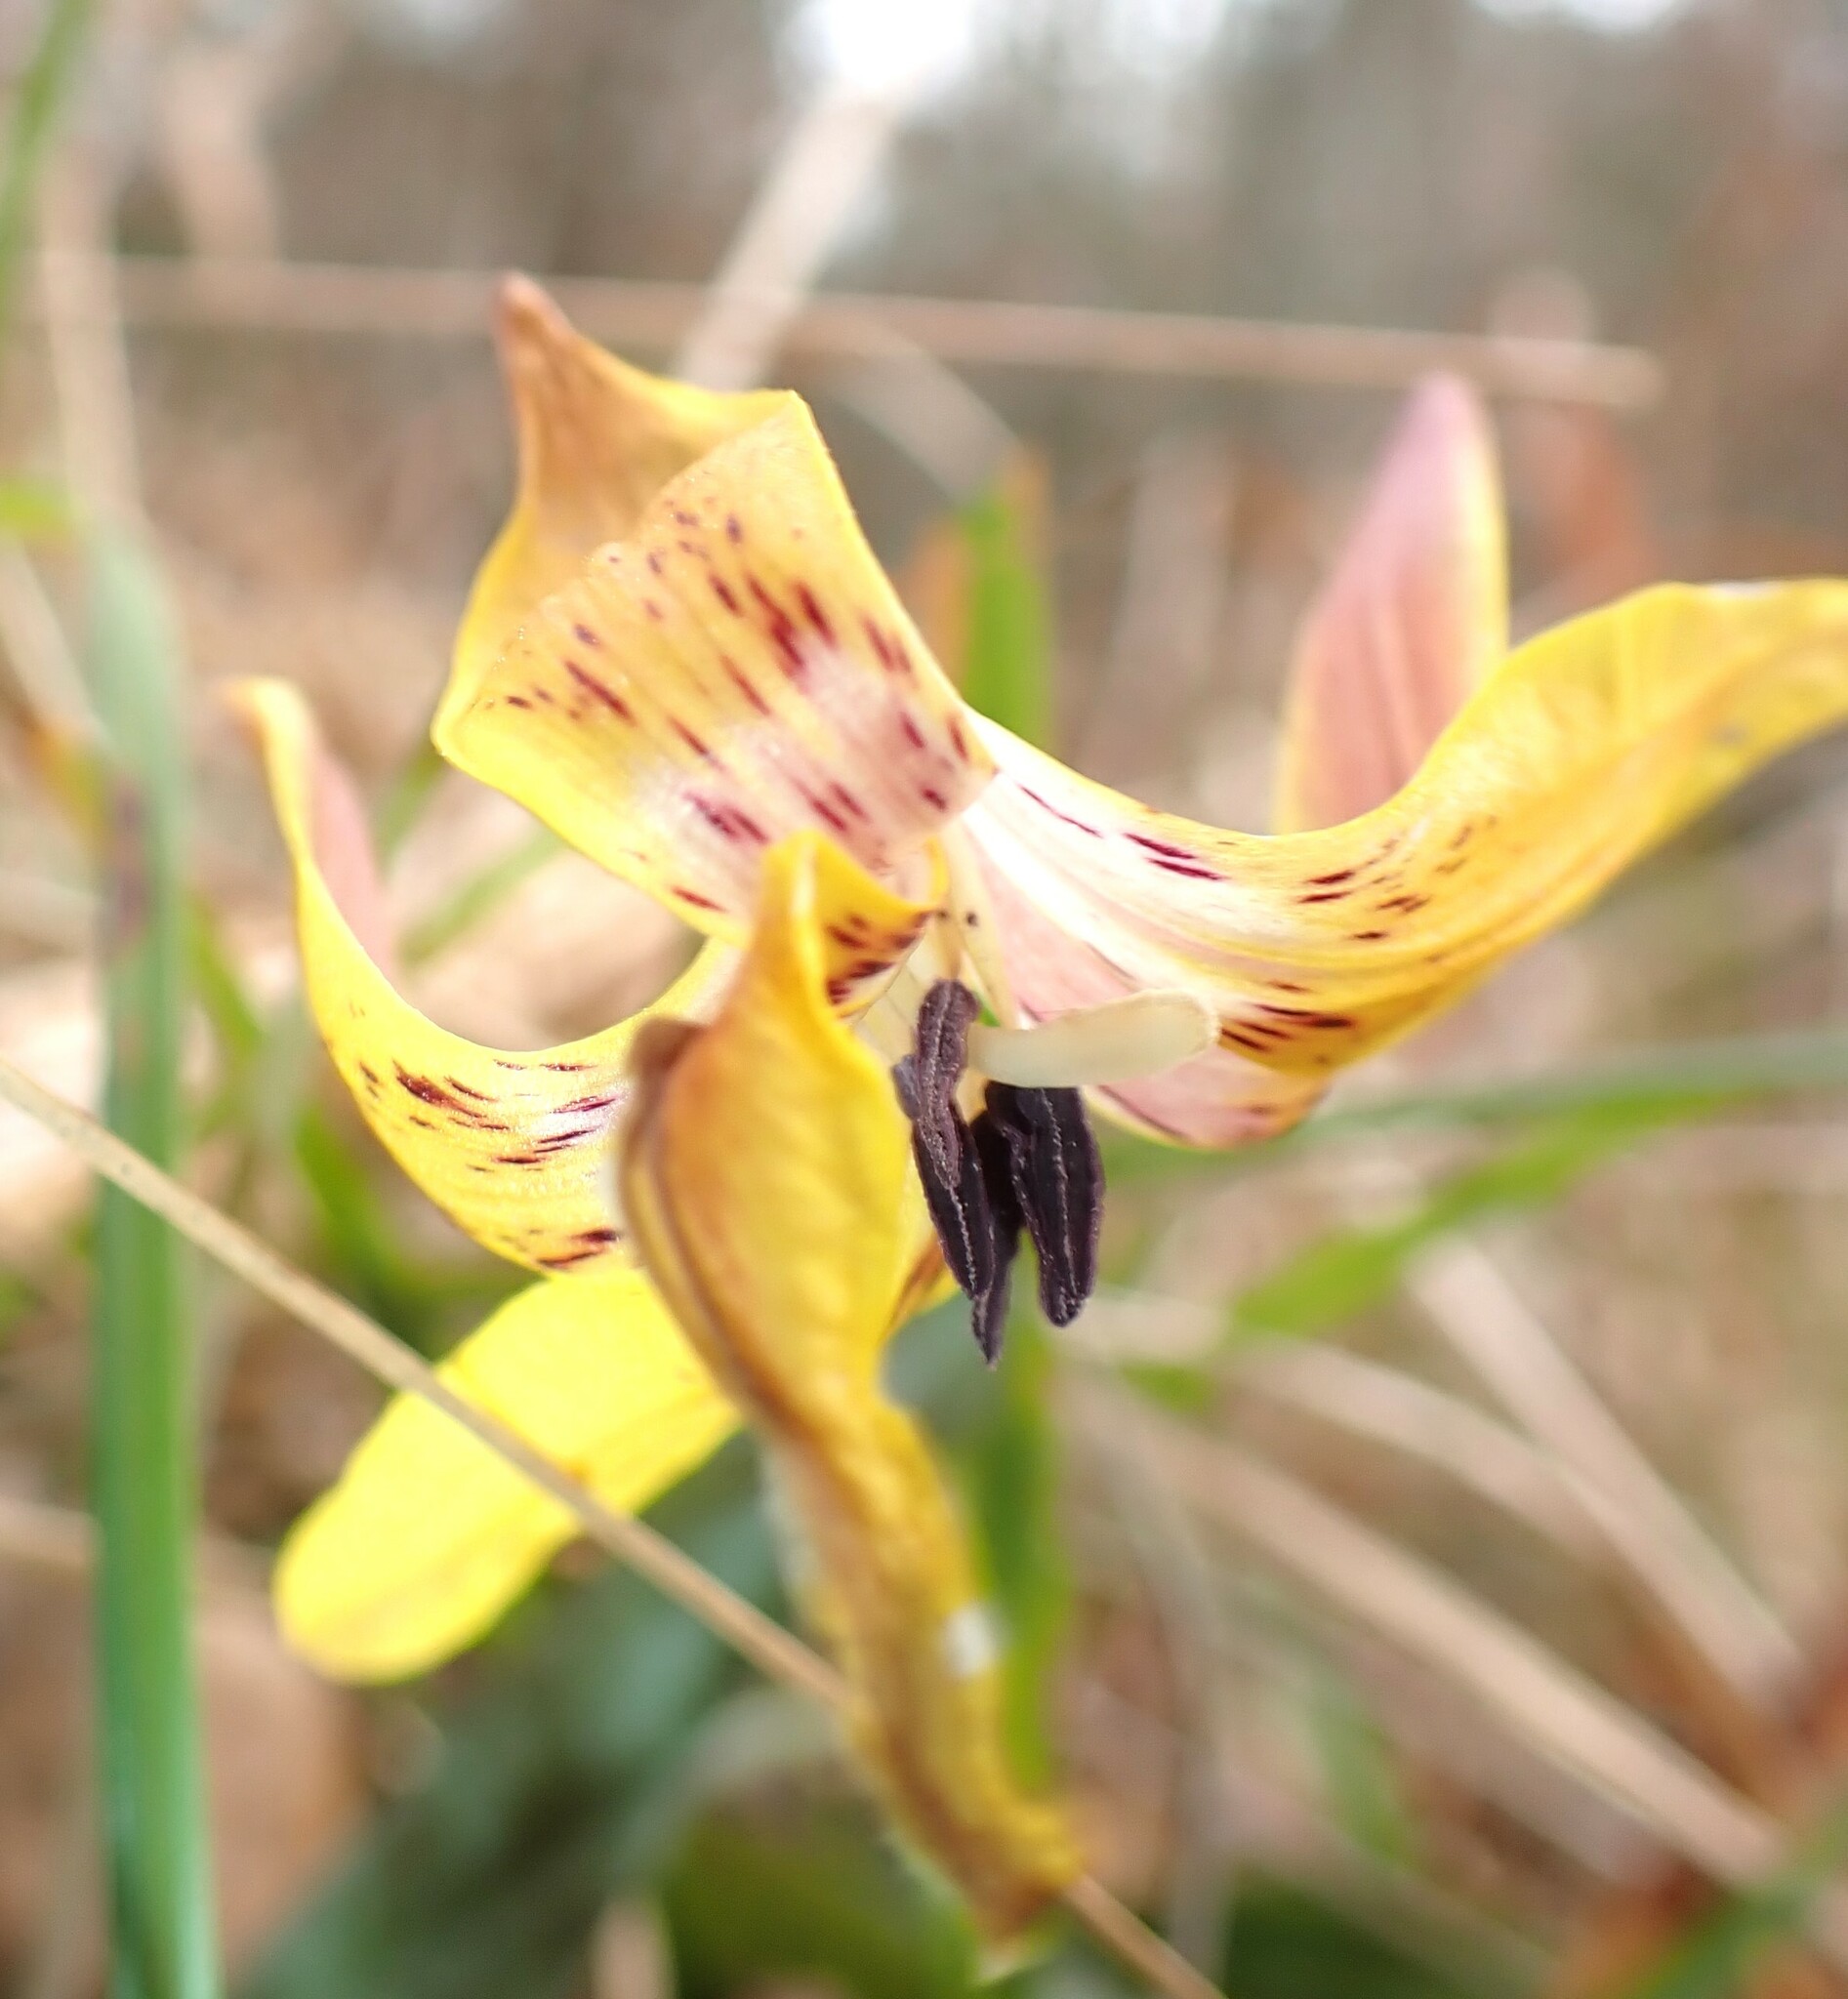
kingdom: Plantae
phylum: Tracheophyta
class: Liliopsida
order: Liliales
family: Liliaceae
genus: Erythronium
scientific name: Erythronium umbilicatum
